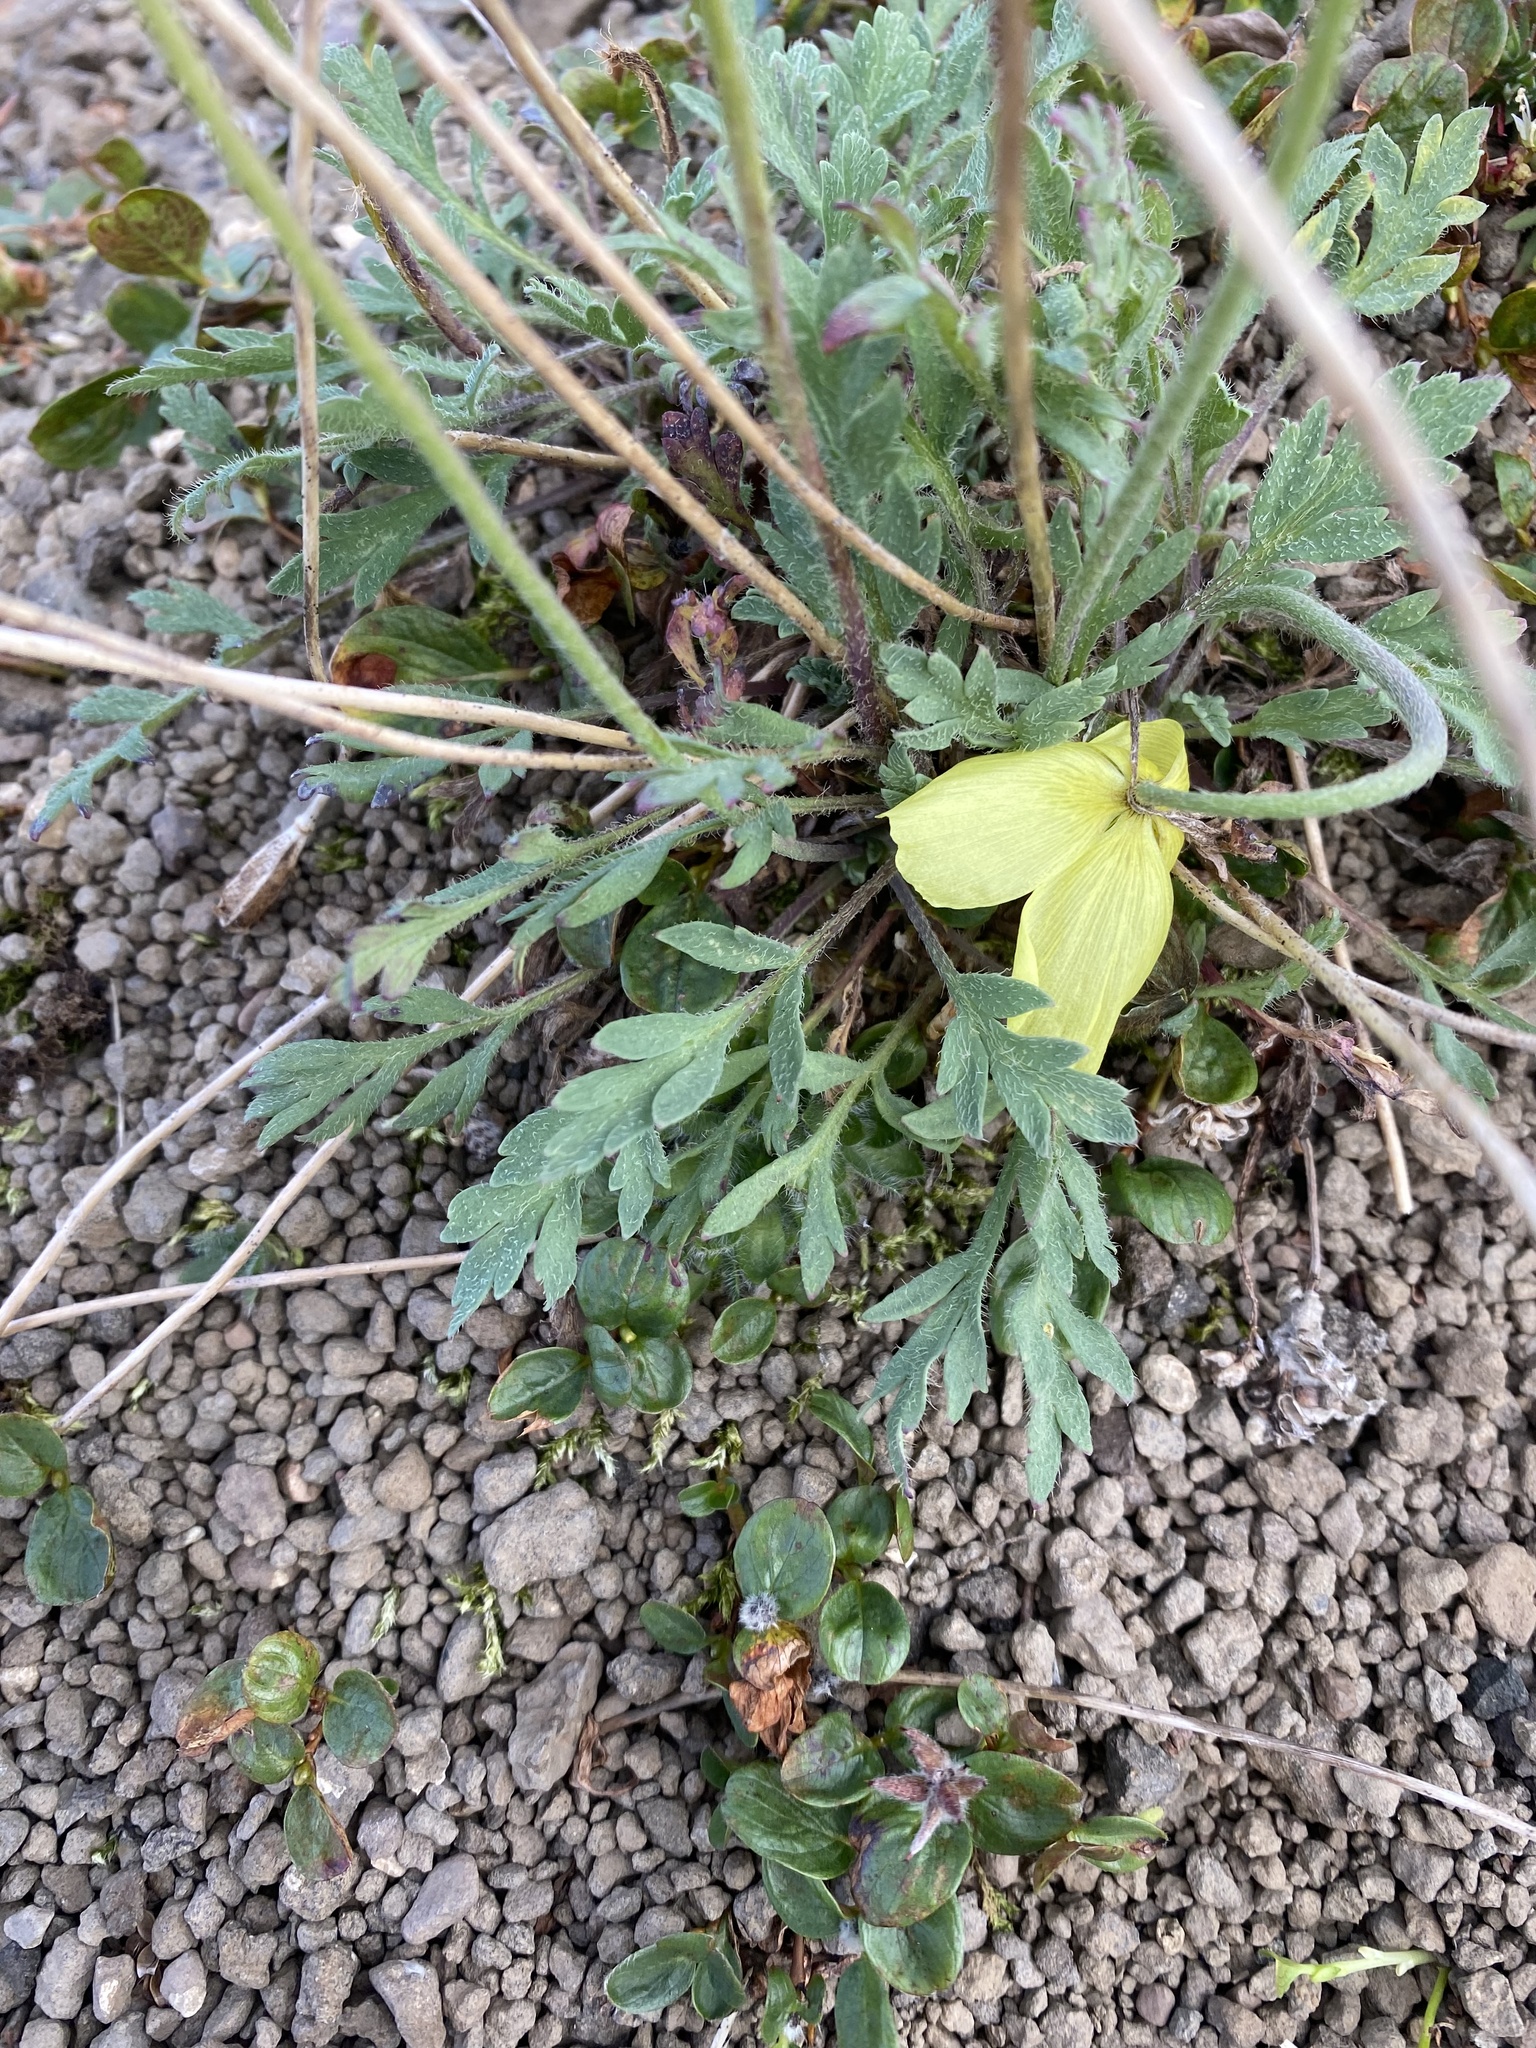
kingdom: Plantae
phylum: Tracheophyta
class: Magnoliopsida
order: Ranunculales
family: Papaveraceae
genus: Papaver
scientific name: Papaver variegatum
